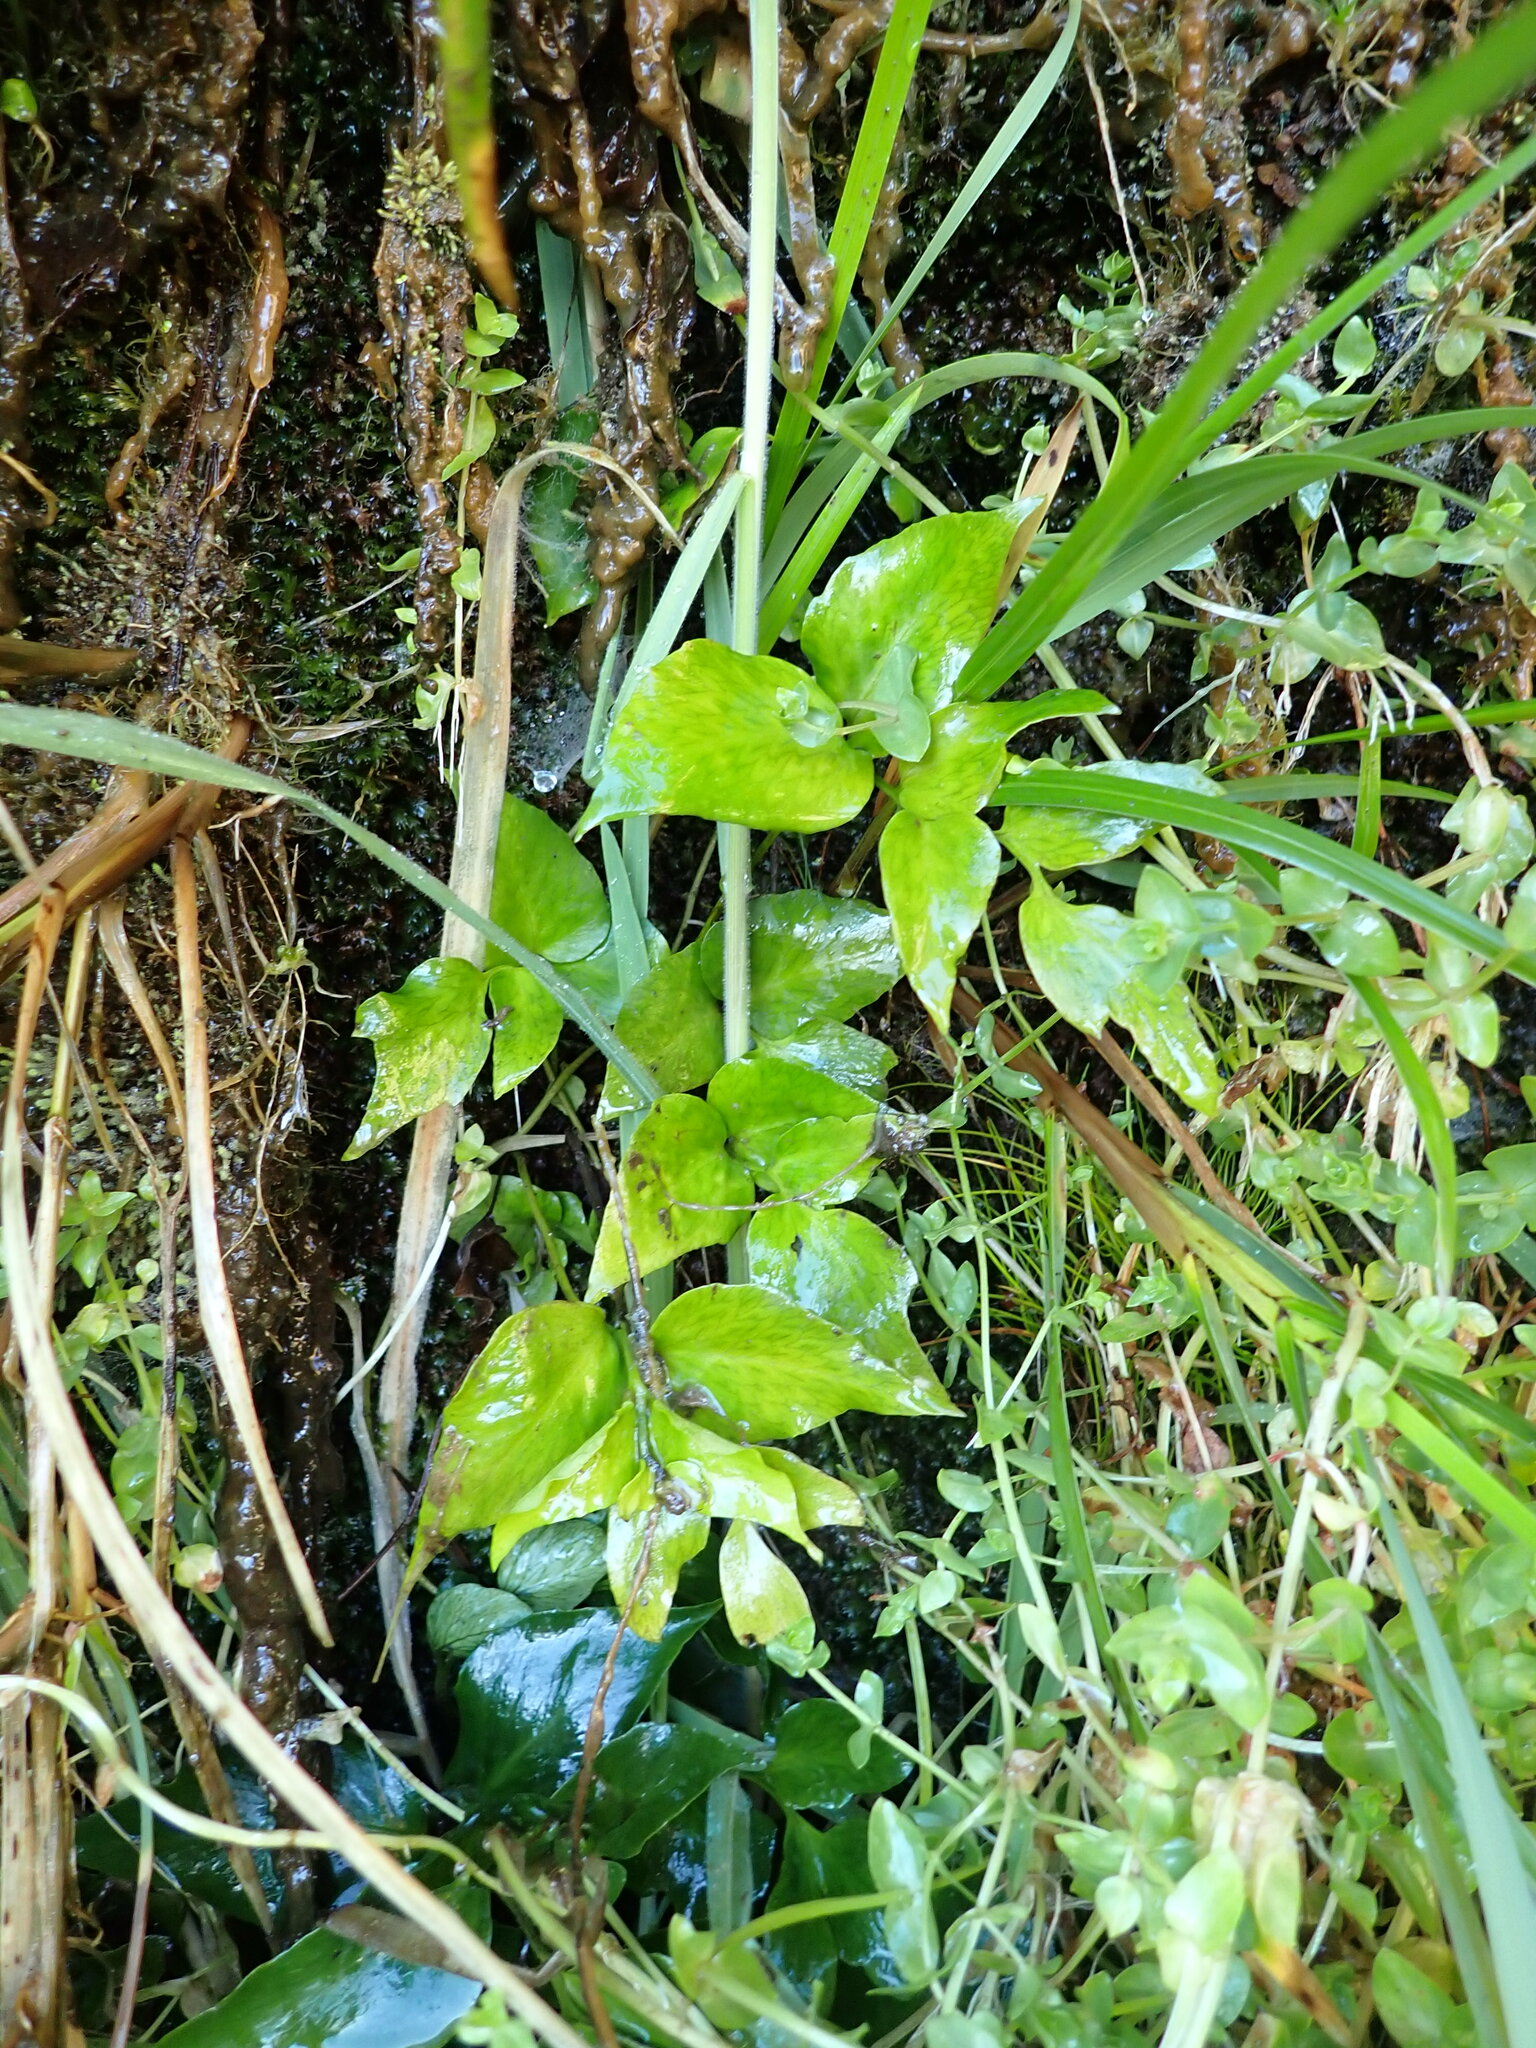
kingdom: Plantae
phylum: Tracheophyta
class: Polypodiopsida
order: Polypodiales
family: Dryopteridaceae
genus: Cyrtomium
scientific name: Cyrtomium falcatum
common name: House holly-fern
